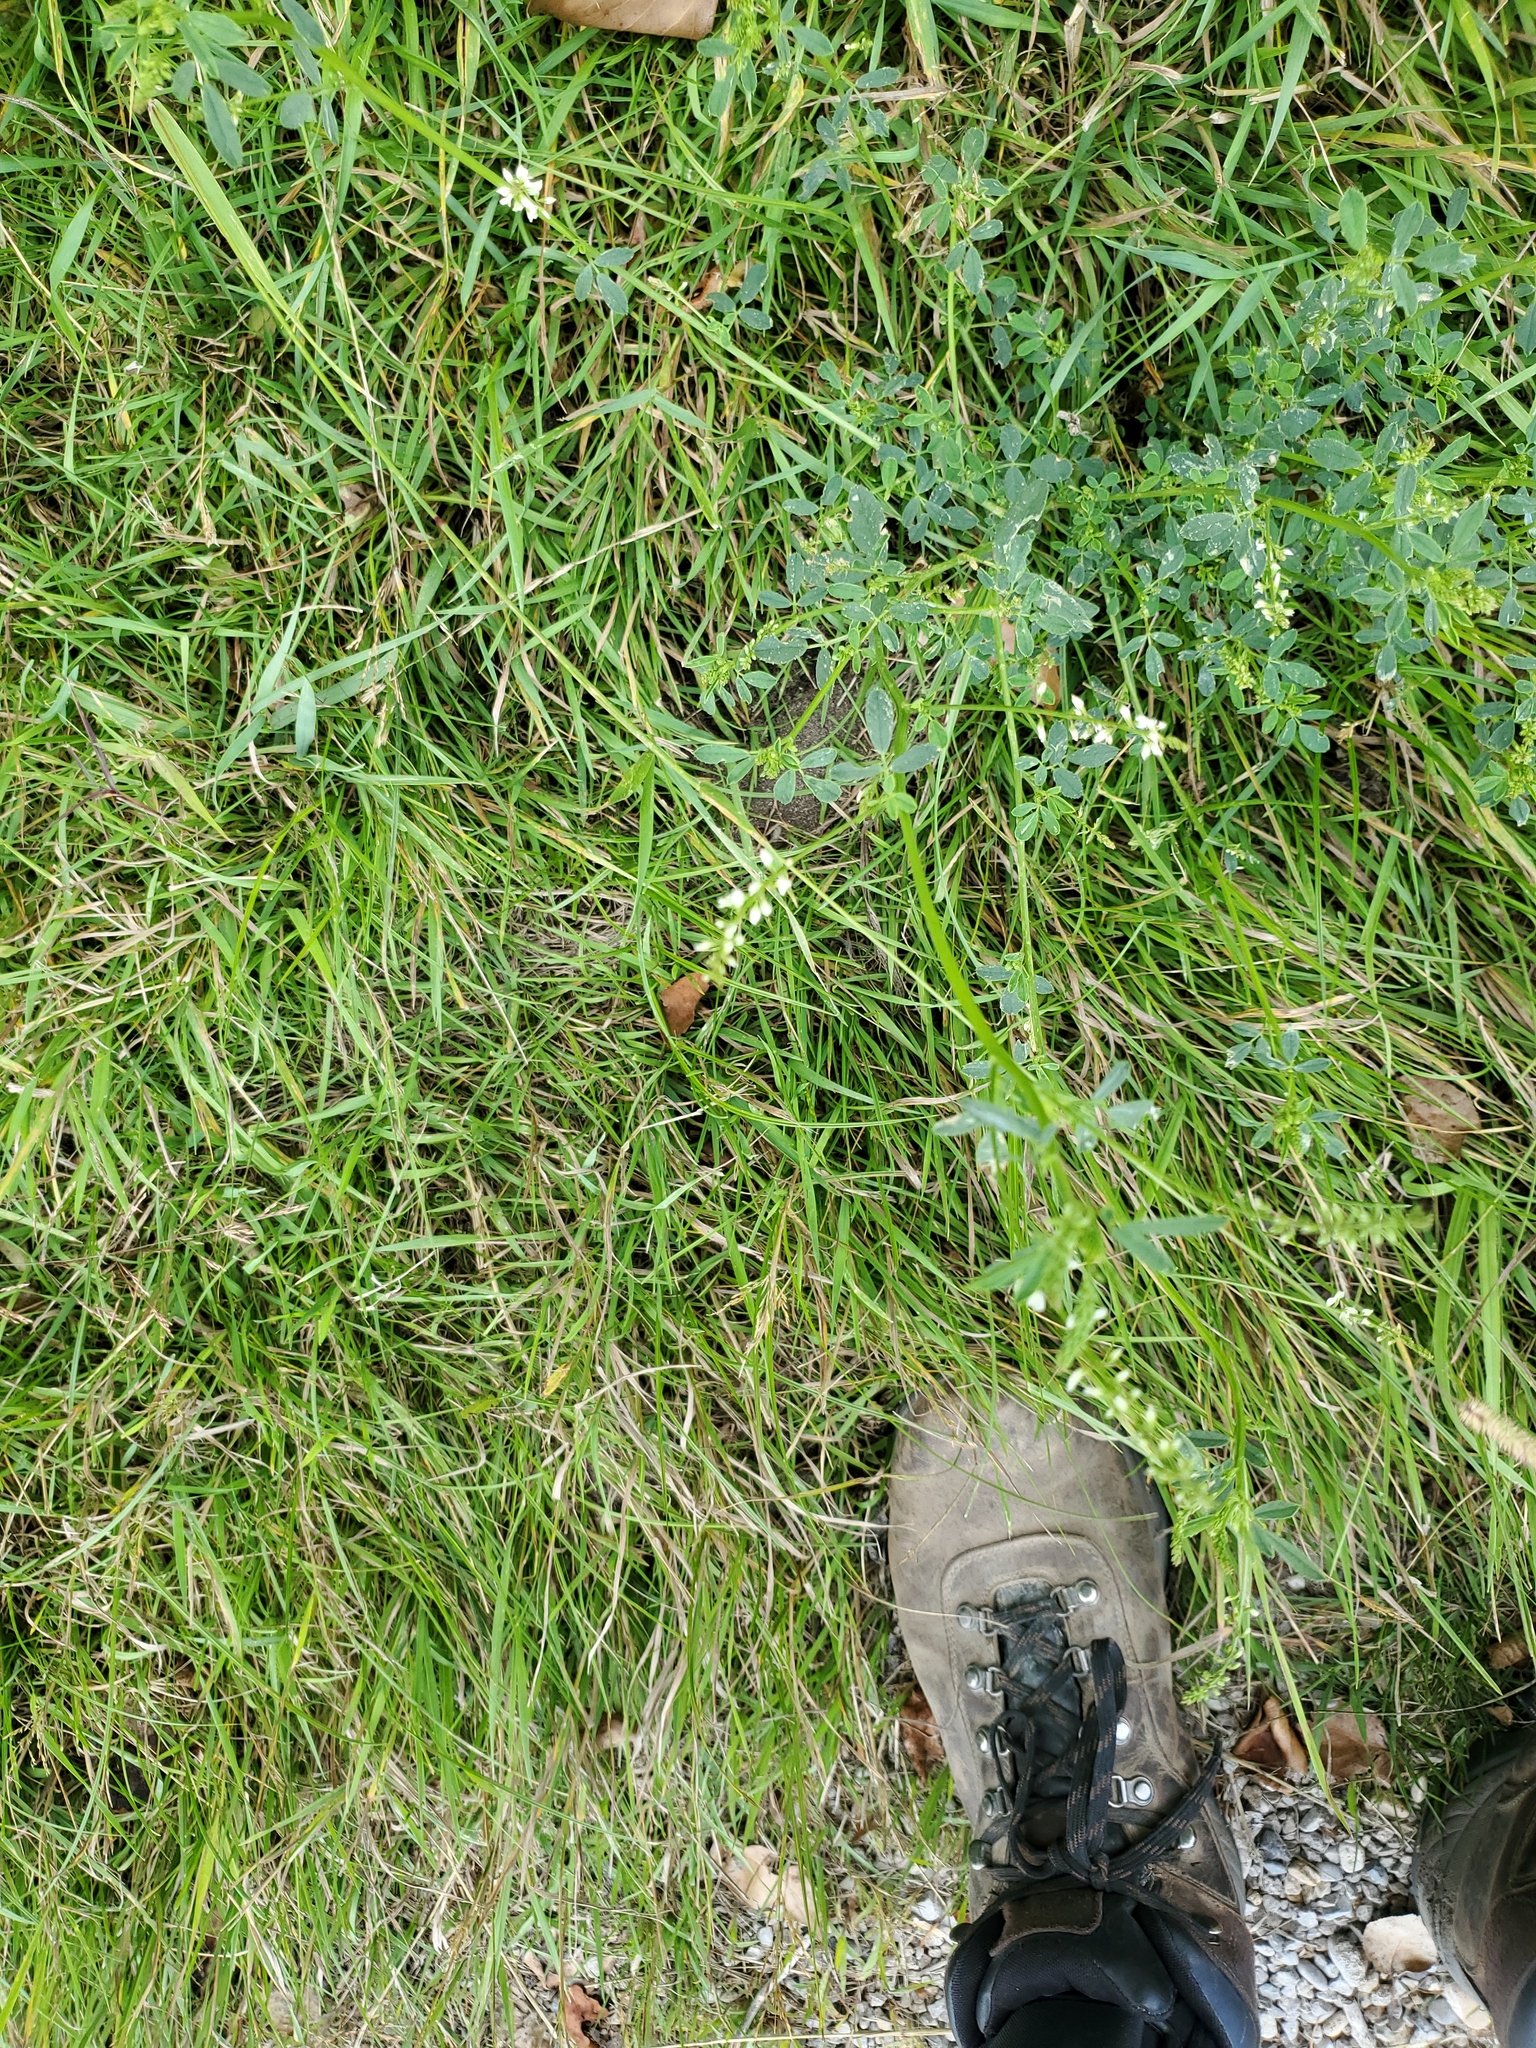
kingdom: Plantae
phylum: Tracheophyta
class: Magnoliopsida
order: Fabales
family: Fabaceae
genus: Melilotus
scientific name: Melilotus albus
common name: White melilot
